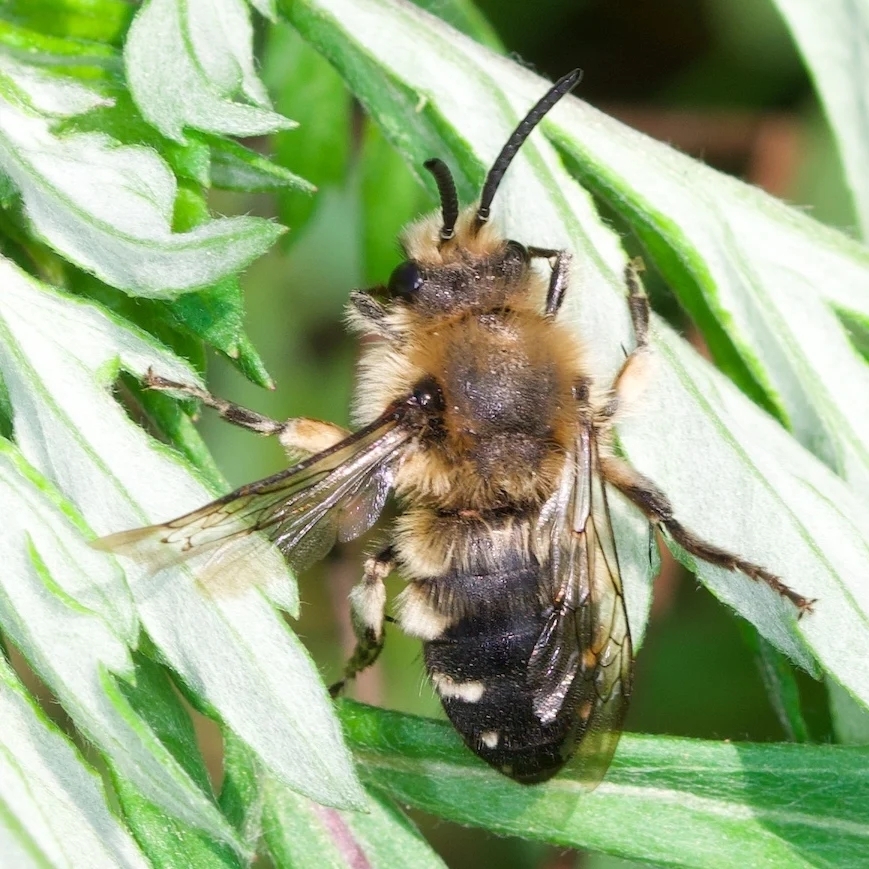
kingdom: Animalia
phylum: Arthropoda
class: Insecta
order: Hymenoptera
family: Apidae
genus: Melecta
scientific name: Melecta albifrons
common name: Common mourning bee
